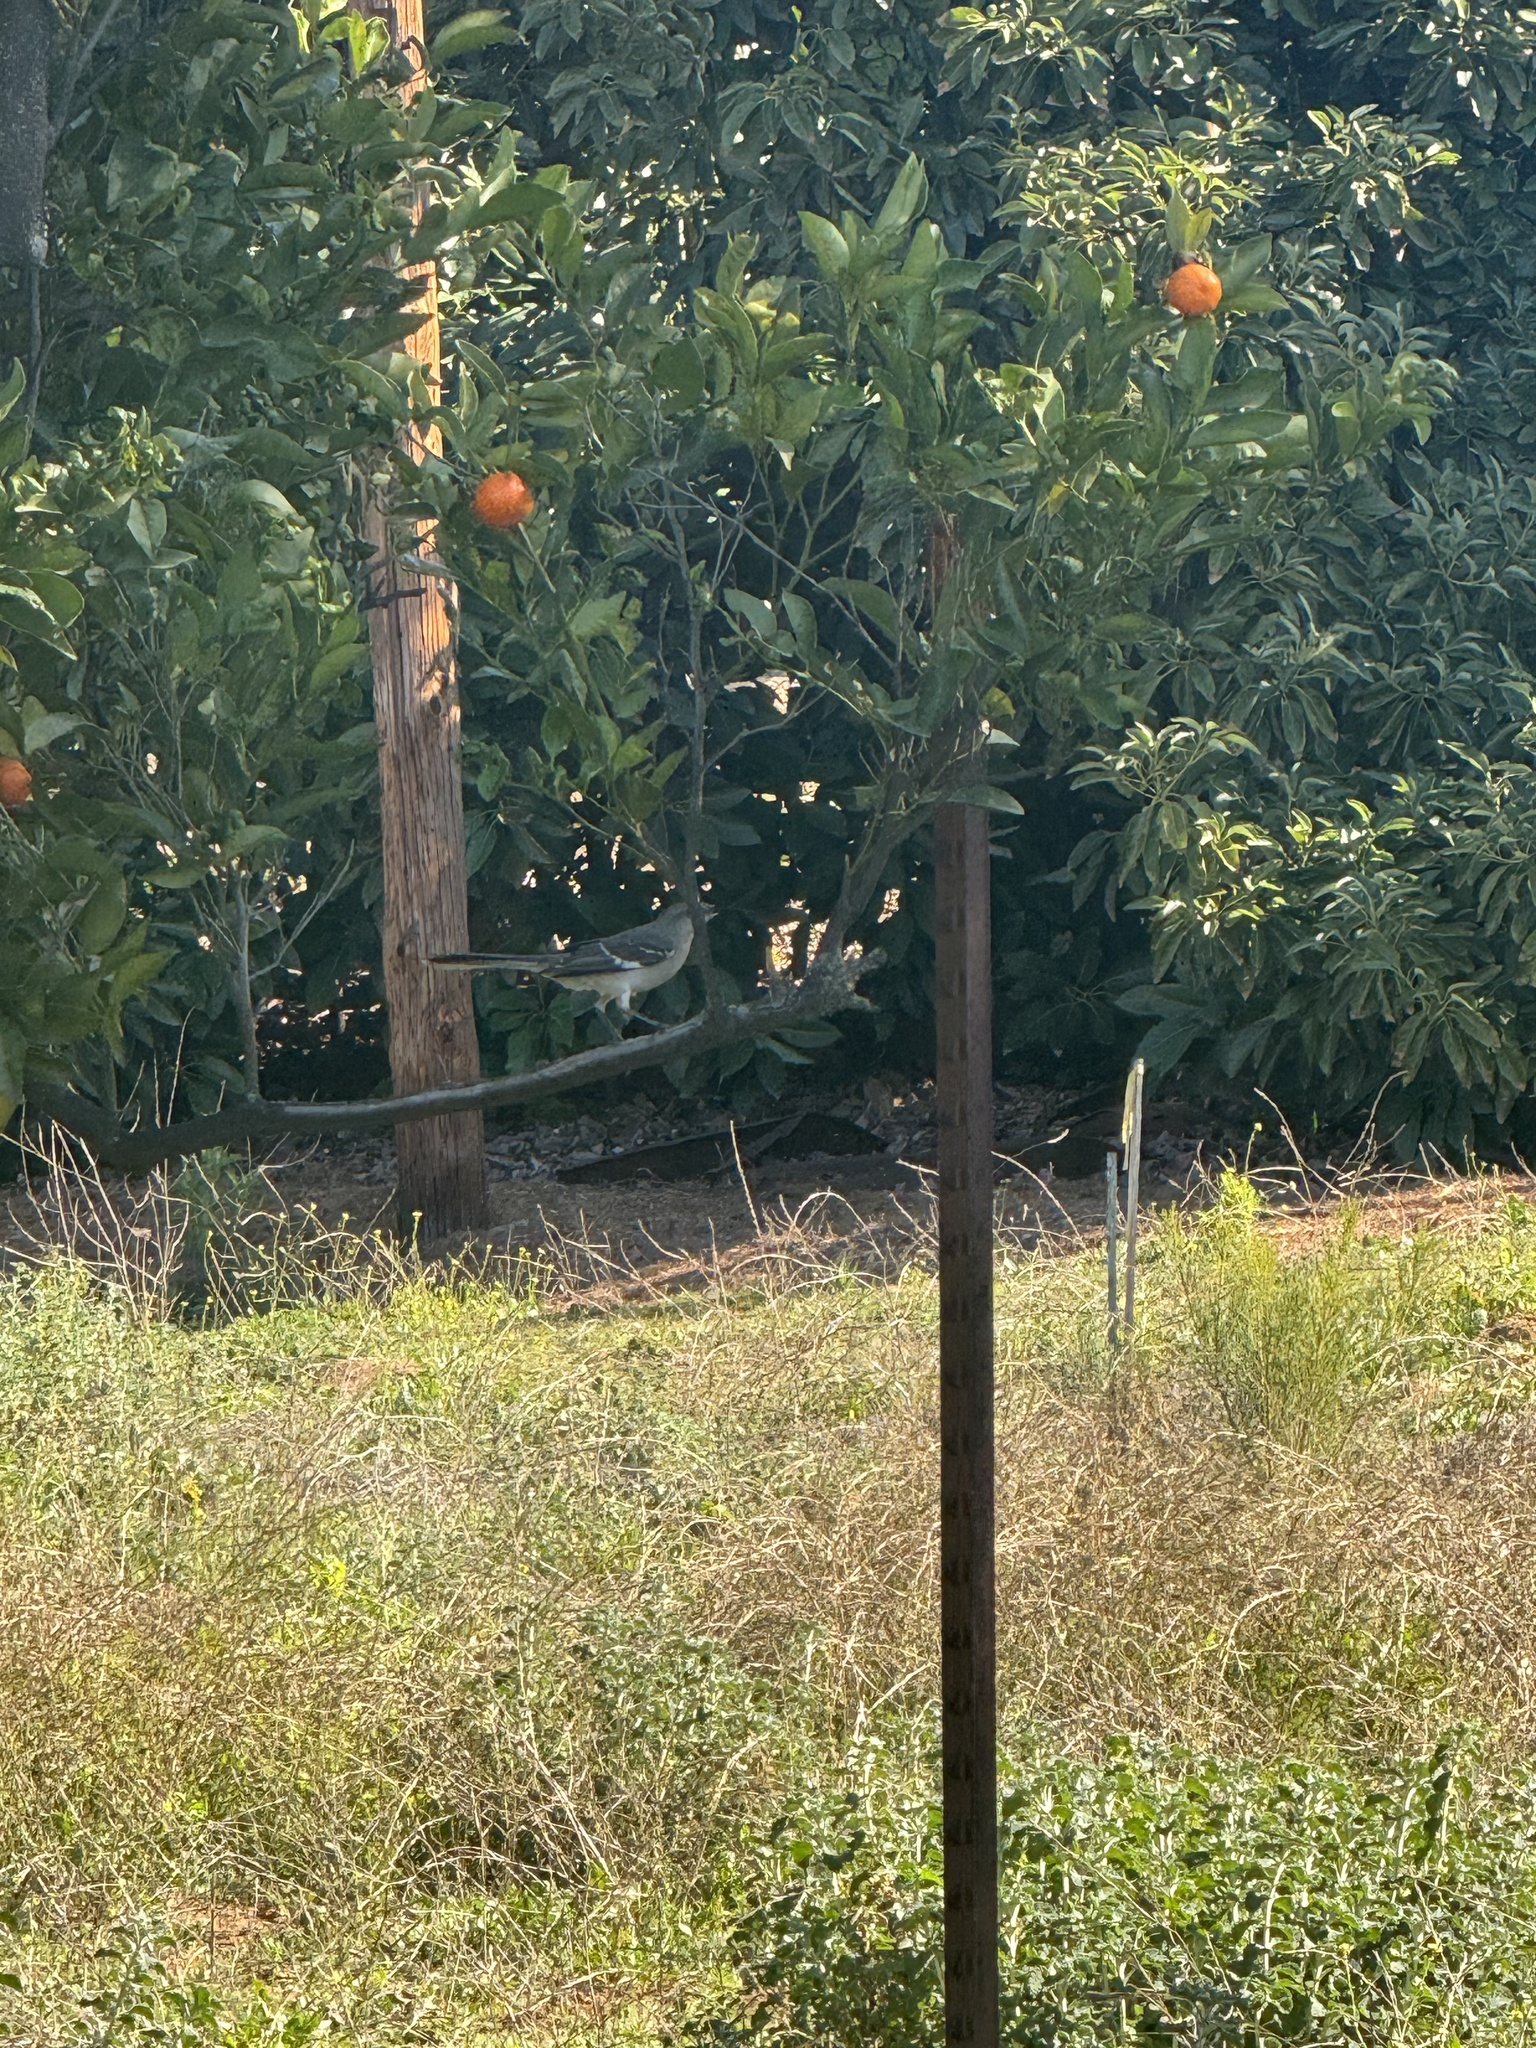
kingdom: Animalia
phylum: Chordata
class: Aves
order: Passeriformes
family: Mimidae
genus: Mimus
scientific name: Mimus polyglottos
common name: Northern mockingbird
